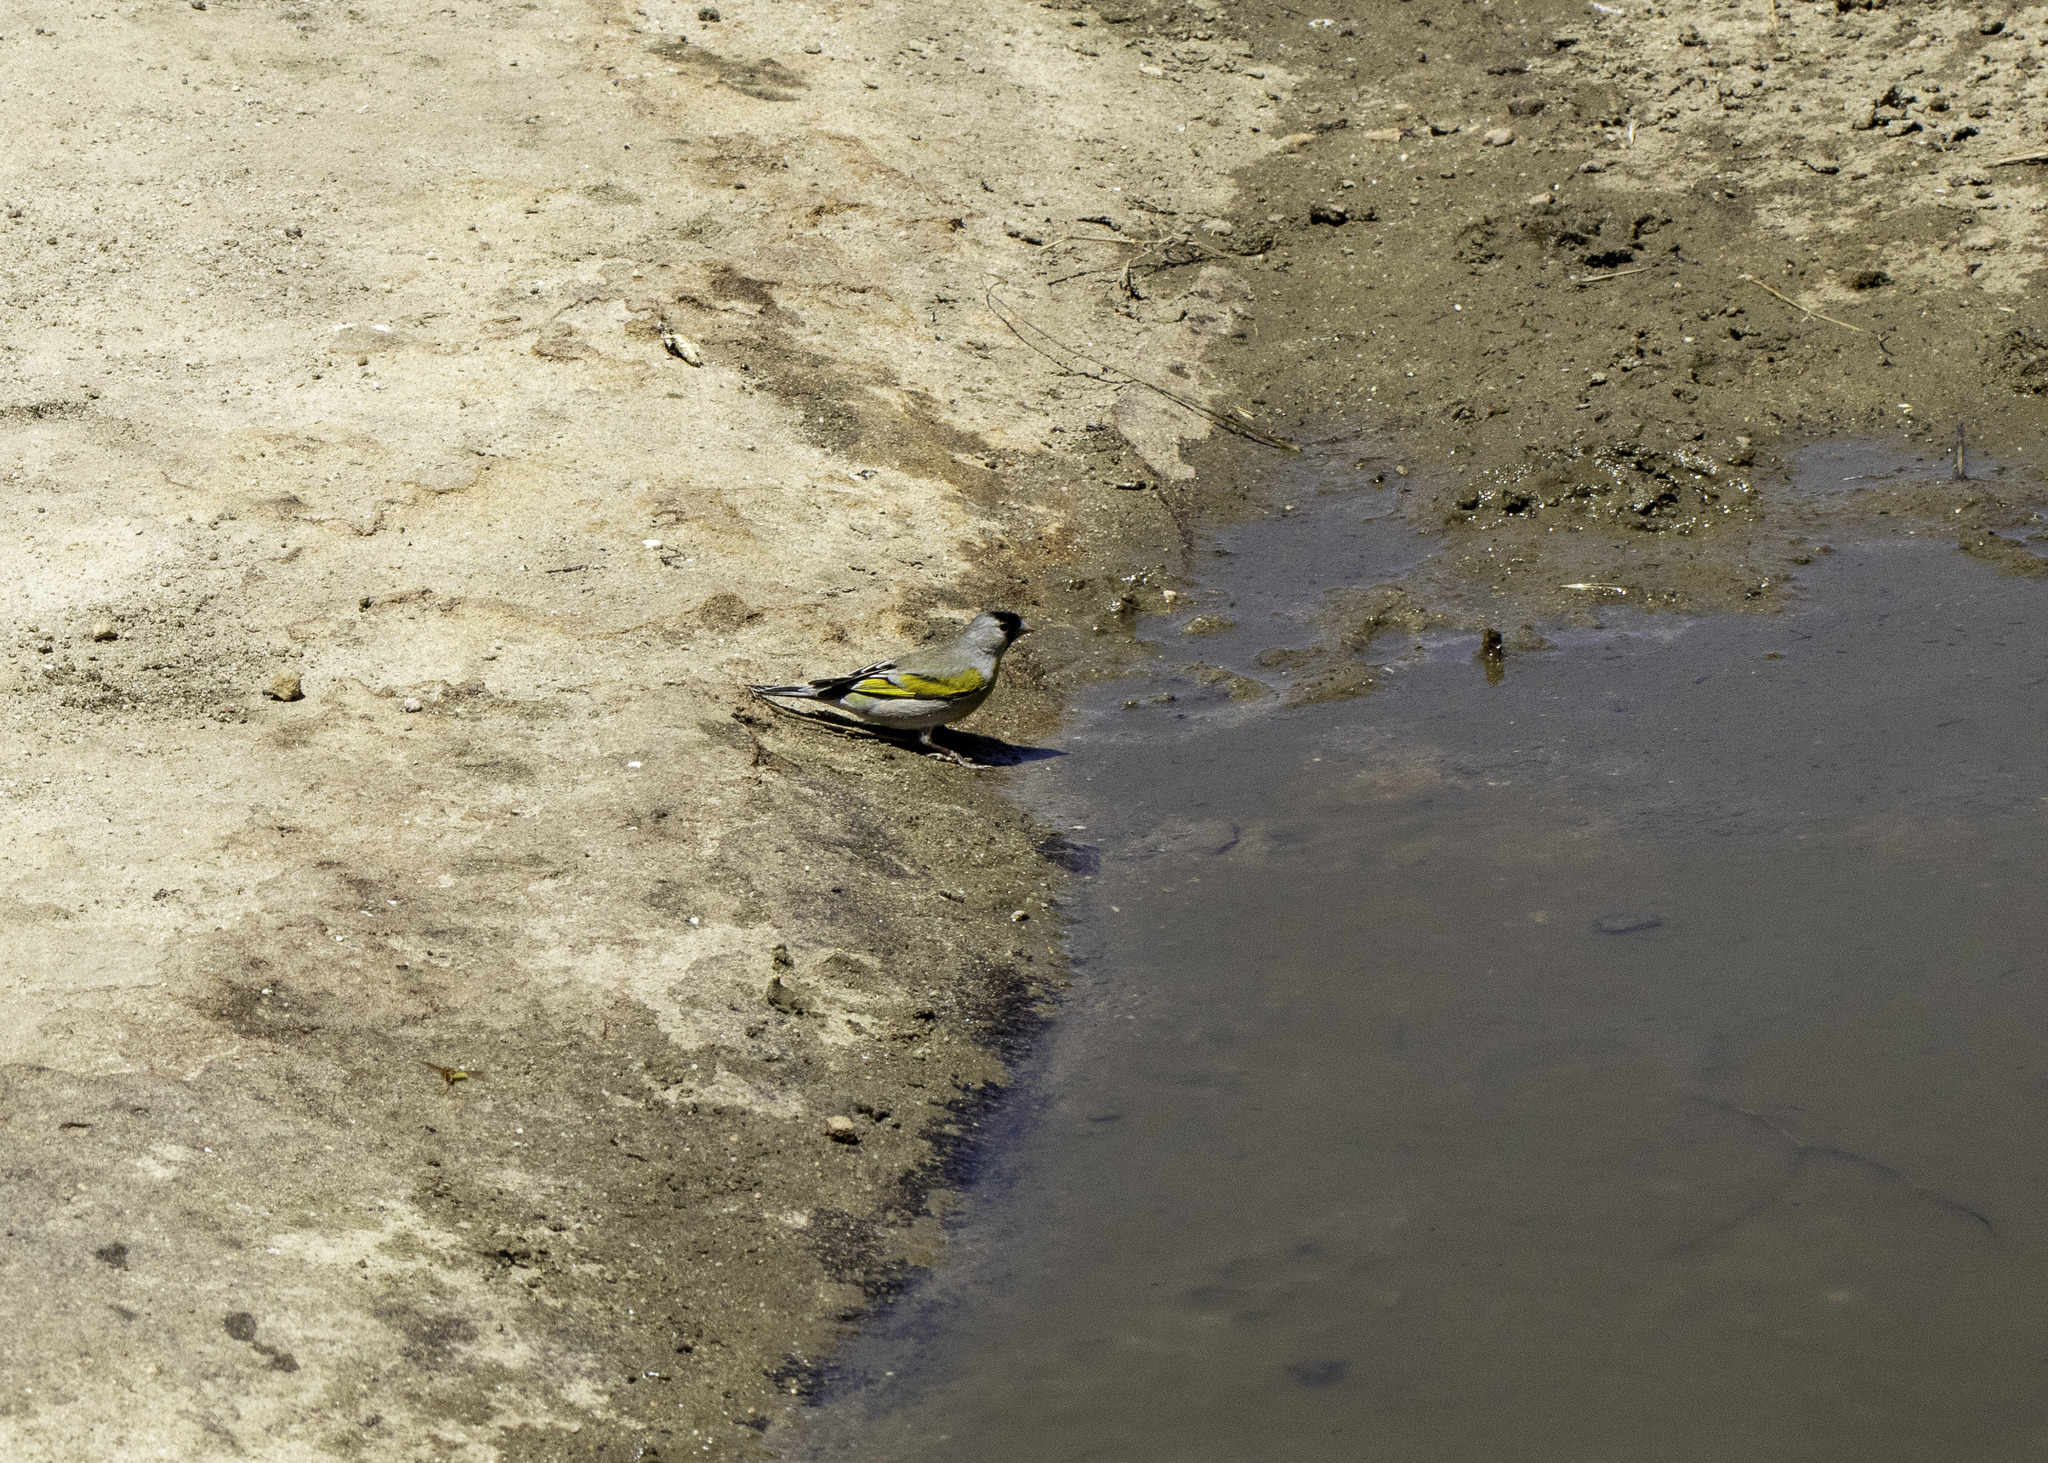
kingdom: Animalia
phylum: Chordata
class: Aves
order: Passeriformes
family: Fringillidae
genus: Spinus
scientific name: Spinus lawrencei
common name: Lawrence's goldfinch
